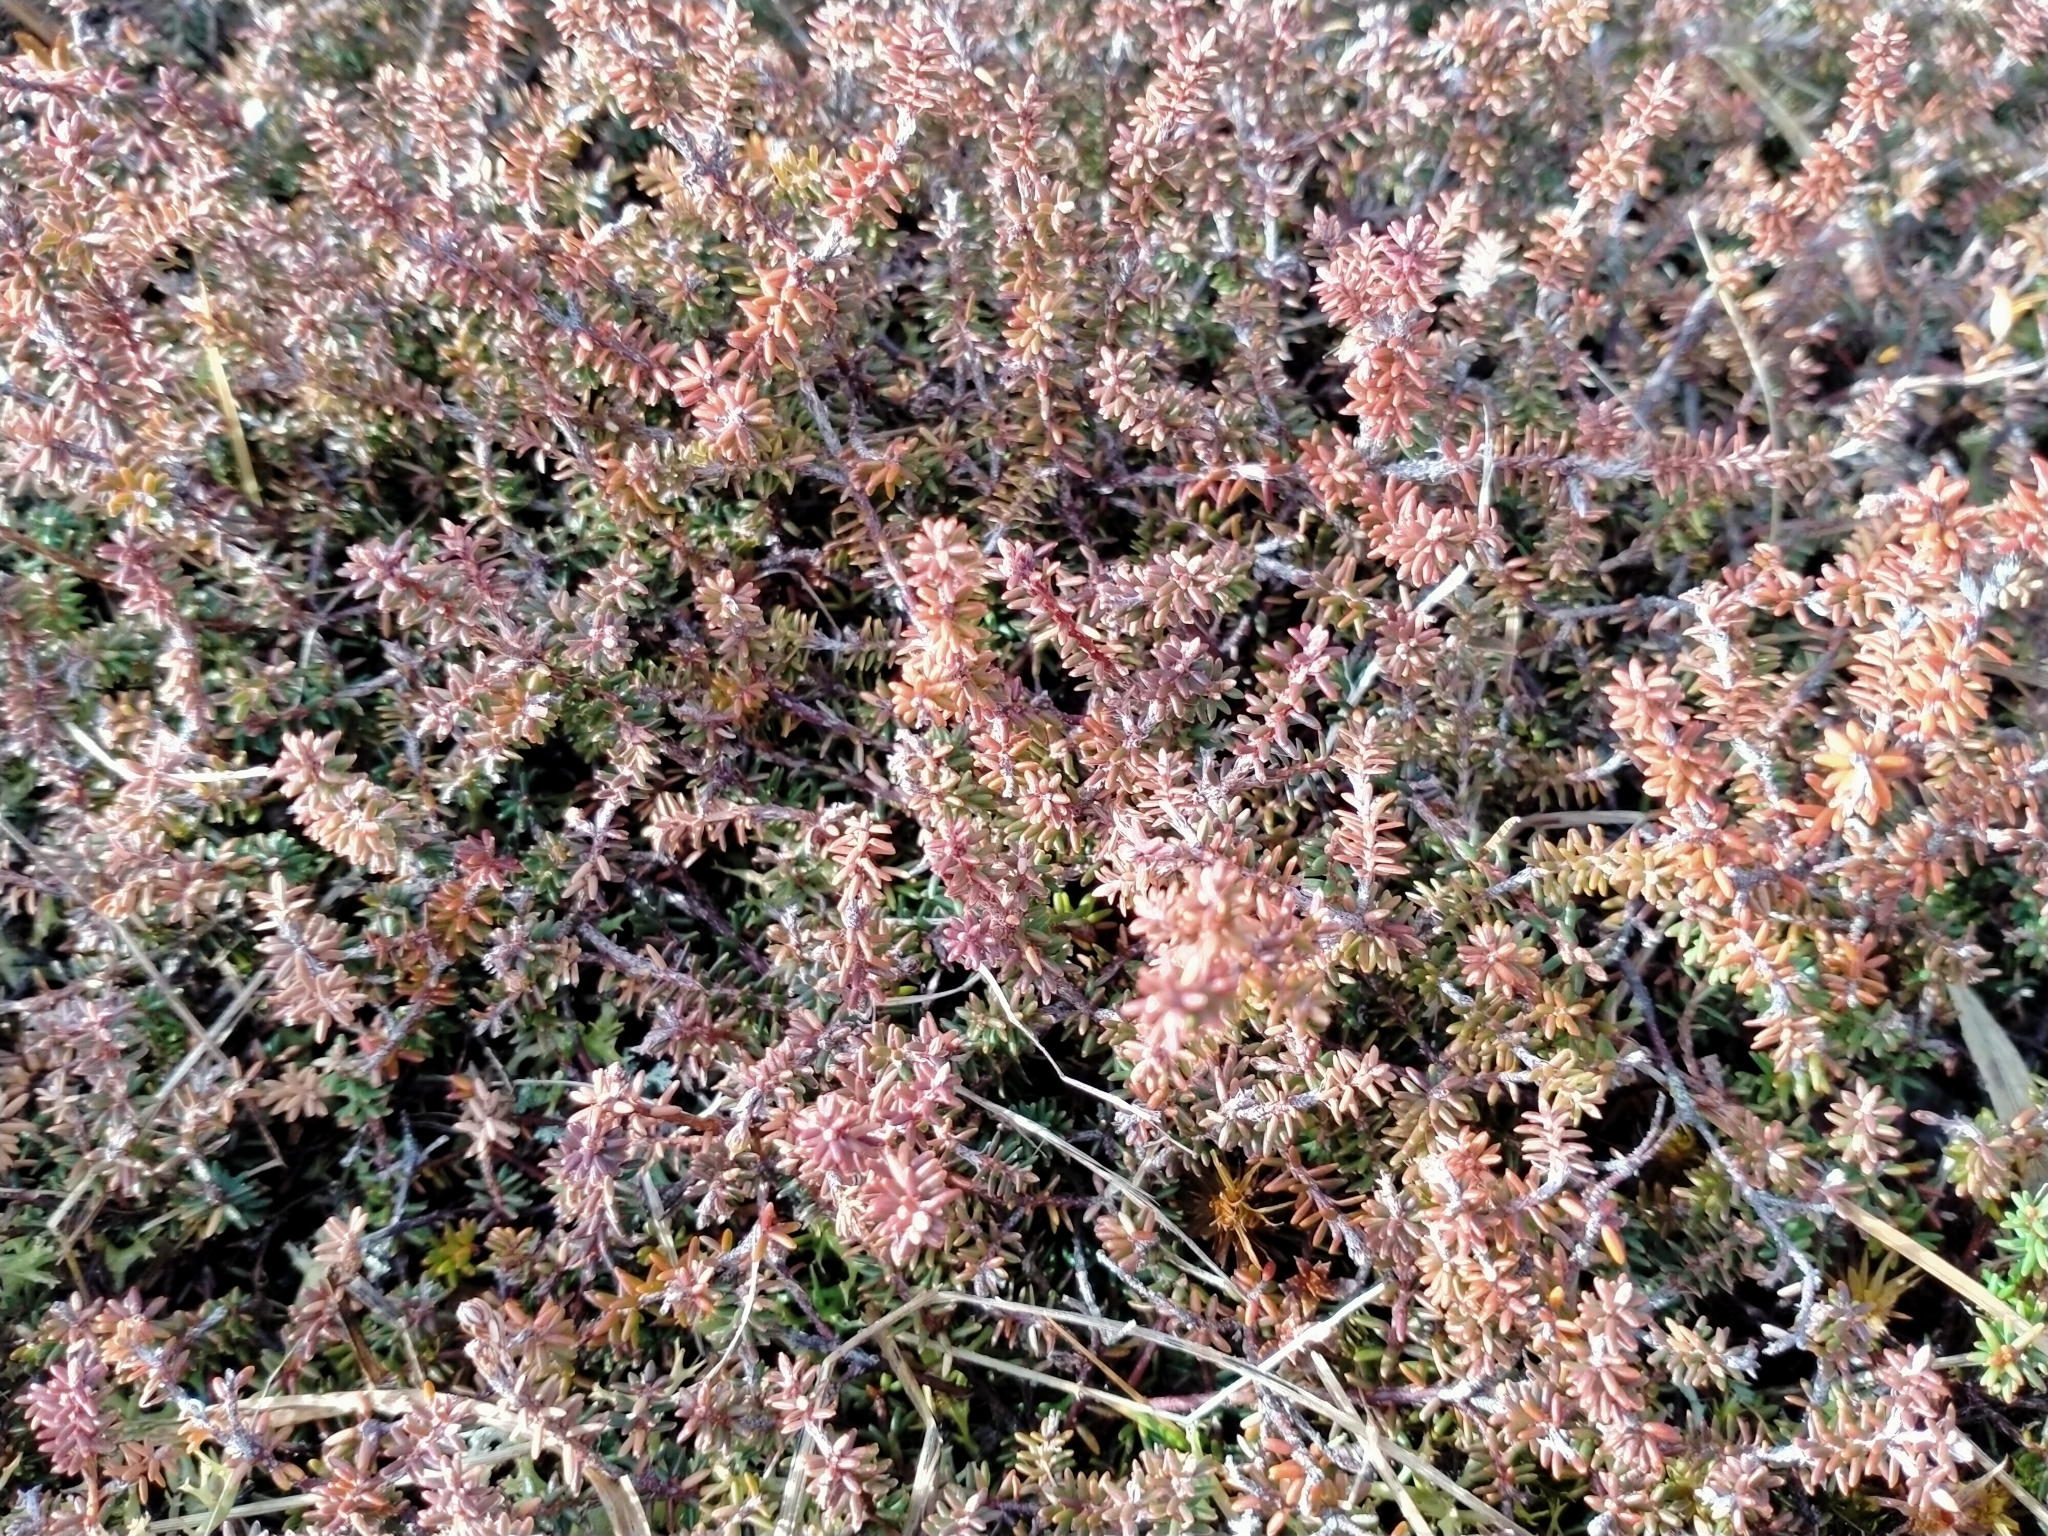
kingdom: Plantae
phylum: Tracheophyta
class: Magnoliopsida
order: Ericales
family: Ericaceae
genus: Androstoma
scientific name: Androstoma empetrifolia
